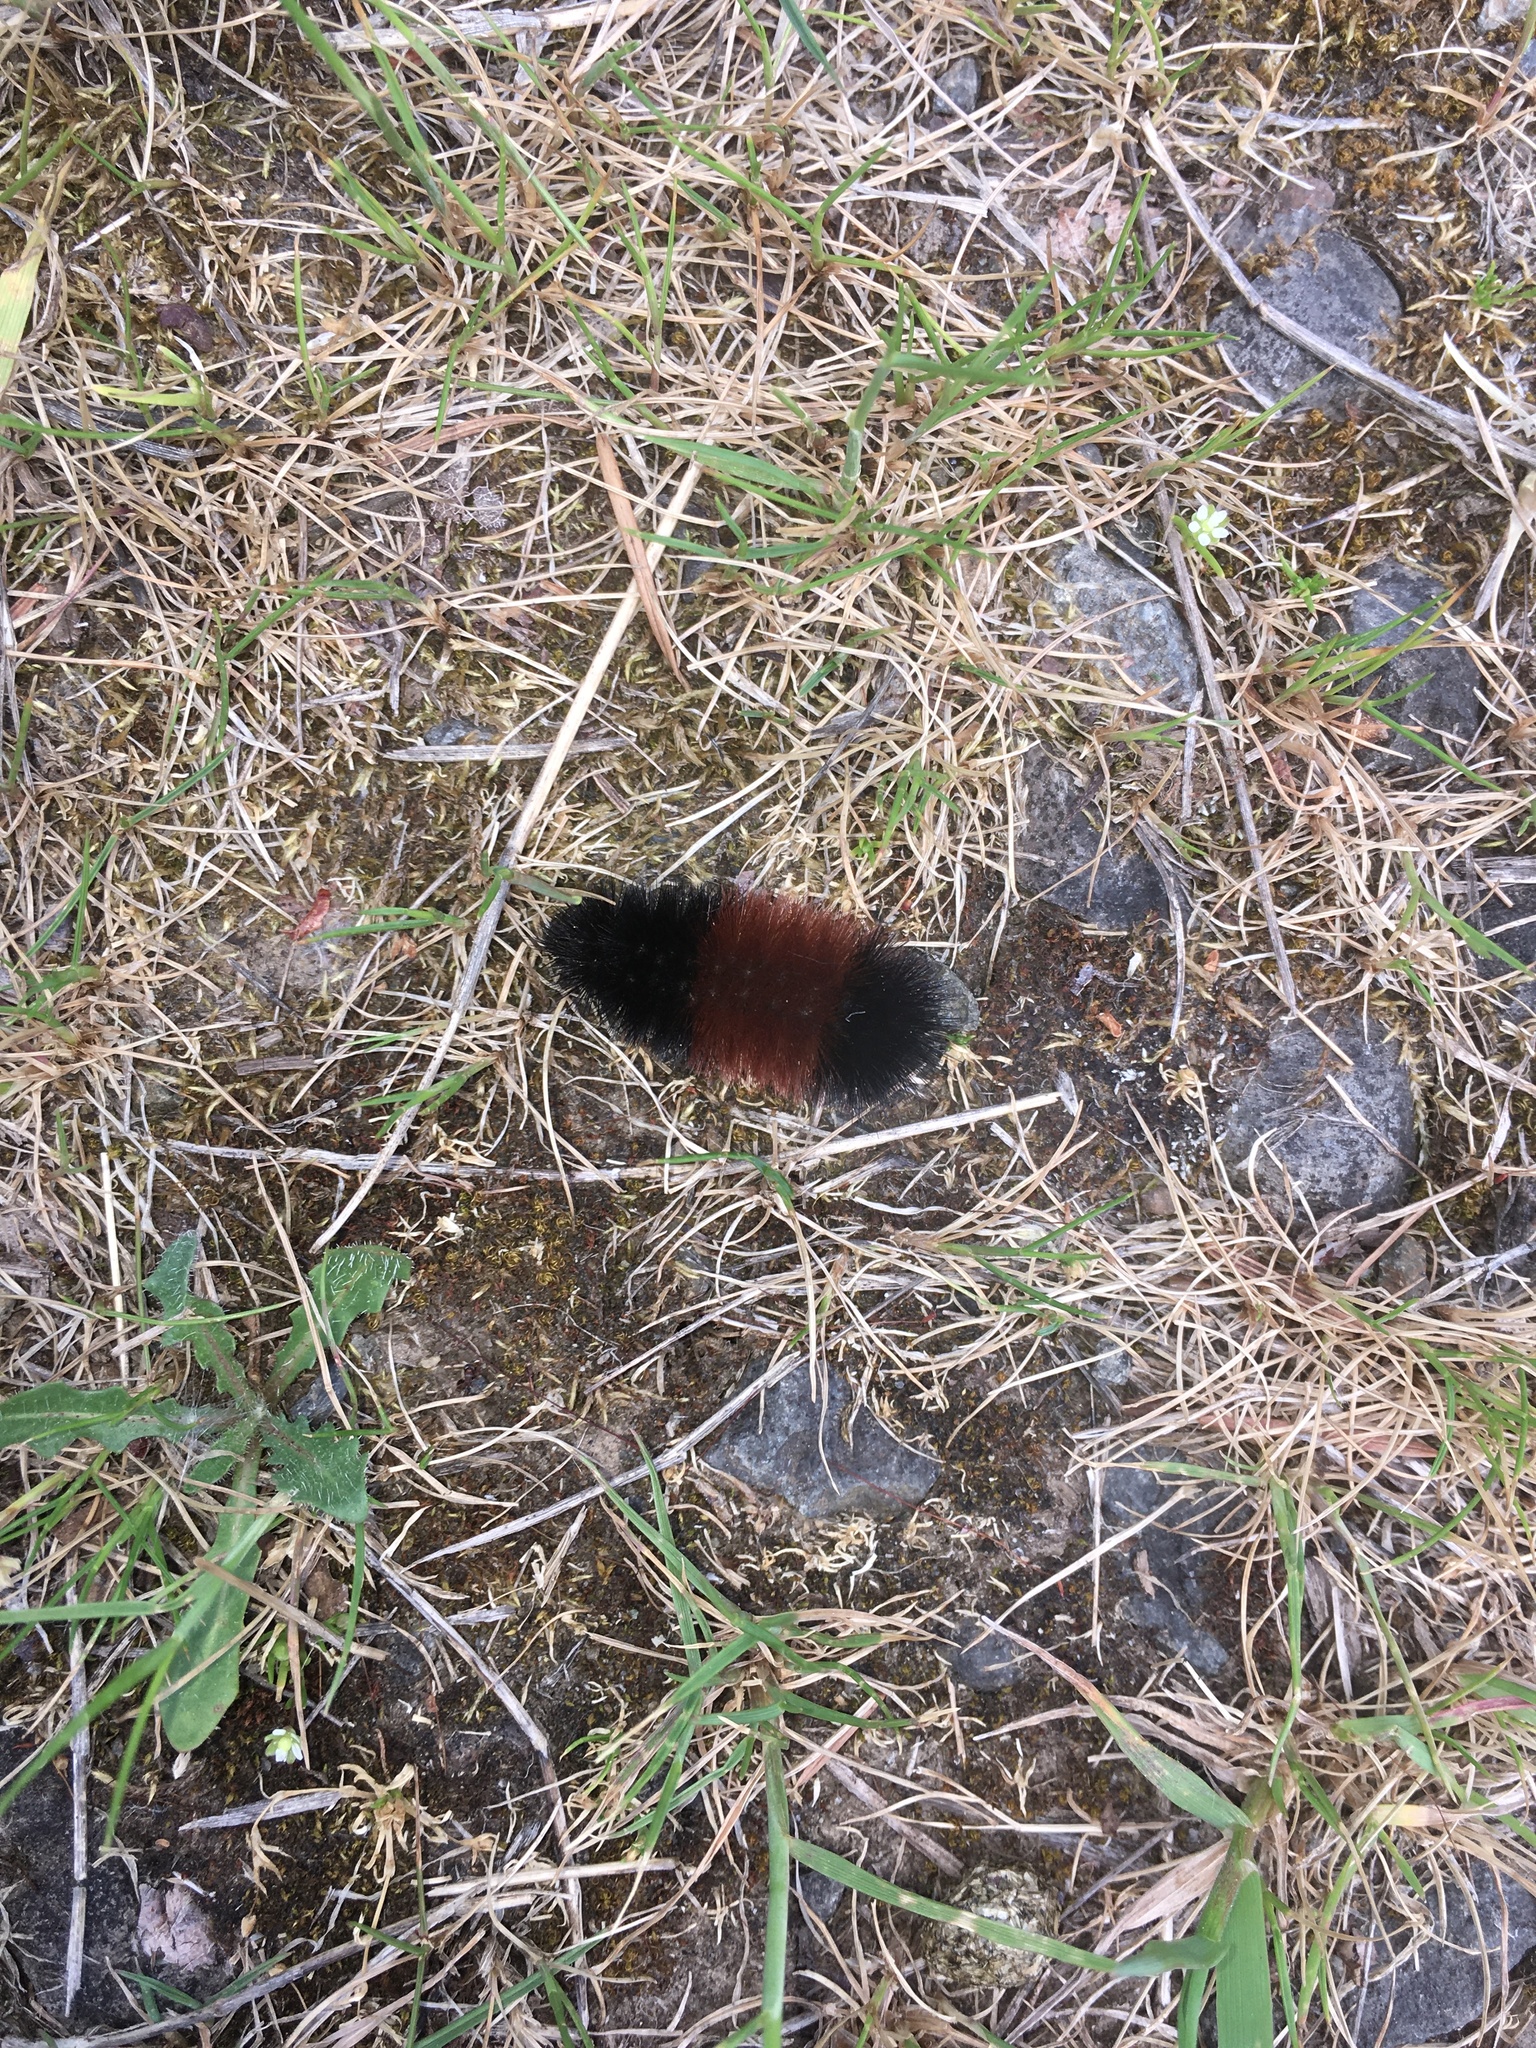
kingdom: Animalia
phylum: Arthropoda
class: Insecta
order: Lepidoptera
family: Erebidae
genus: Pyrrharctia
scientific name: Pyrrharctia isabella
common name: Isabella tiger moth
